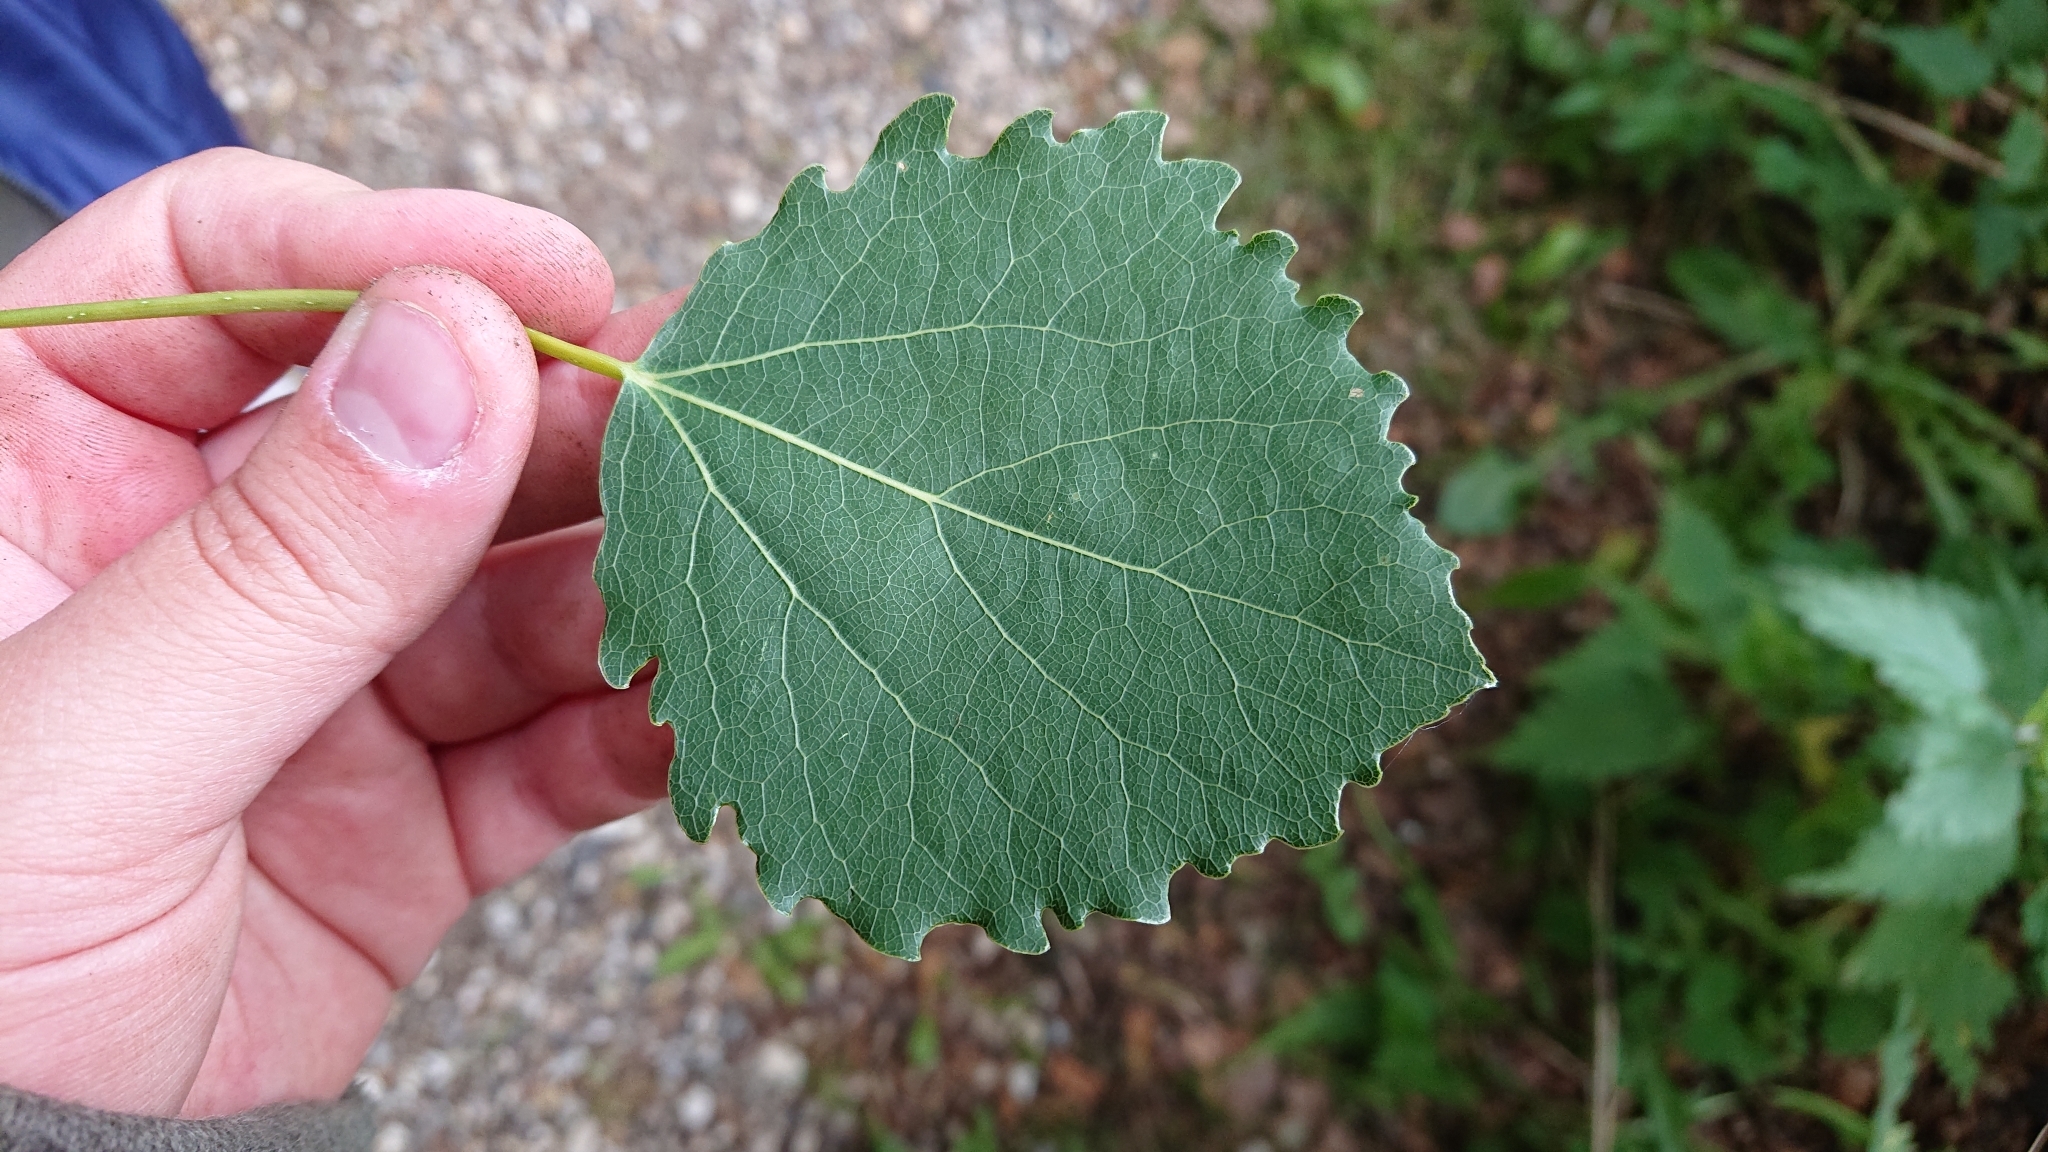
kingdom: Plantae
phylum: Tracheophyta
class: Magnoliopsida
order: Malpighiales
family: Salicaceae
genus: Populus
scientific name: Populus tremula
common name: European aspen
